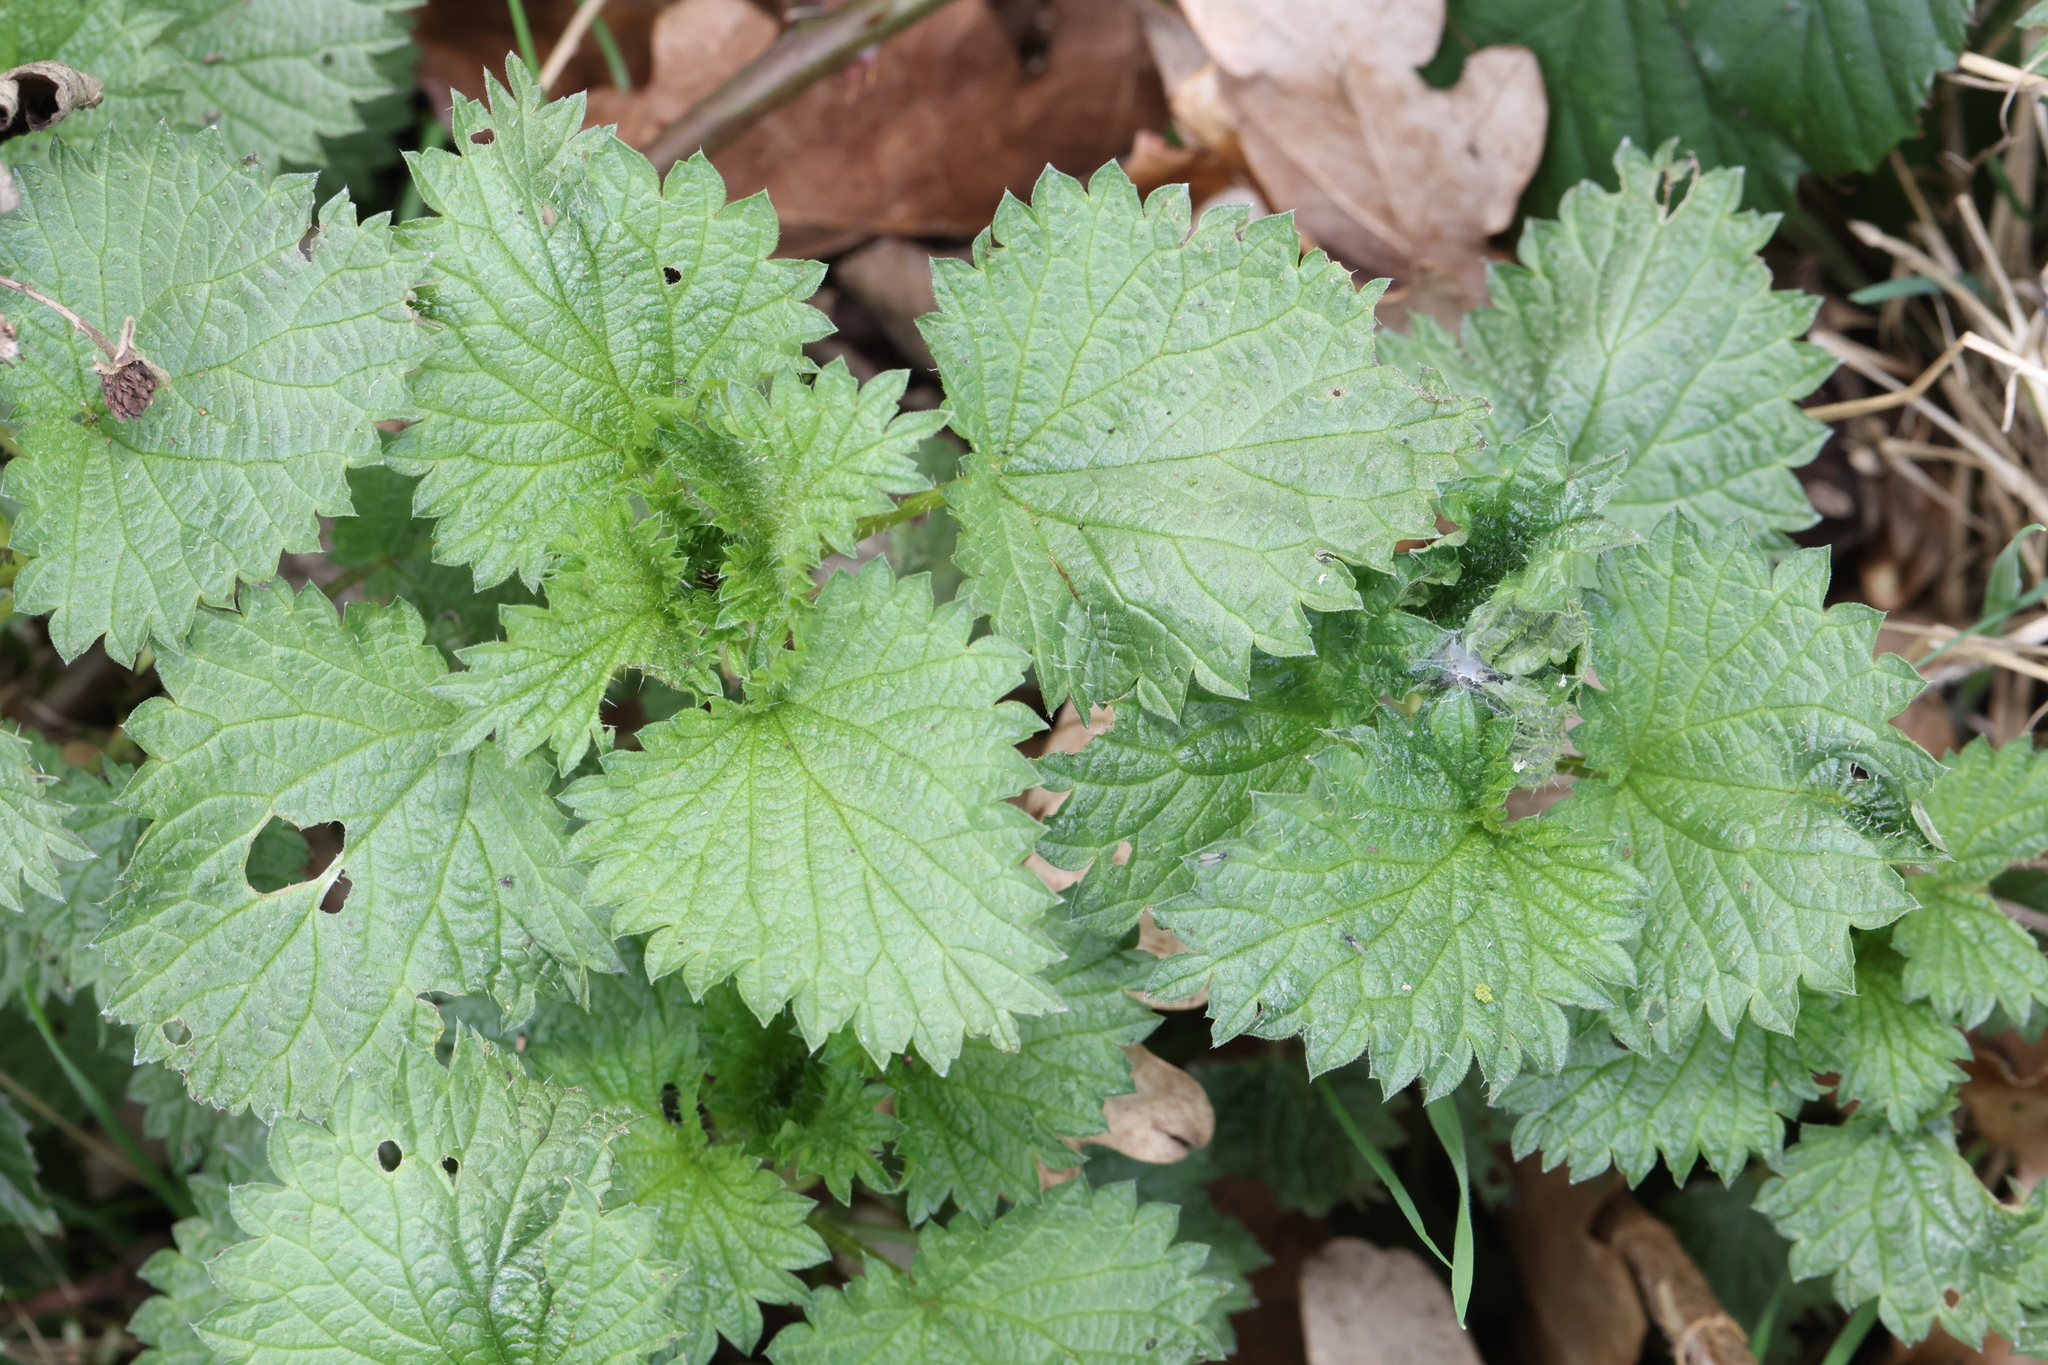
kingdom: Plantae
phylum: Tracheophyta
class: Magnoliopsida
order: Rosales
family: Urticaceae
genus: Urtica
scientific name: Urtica dioica
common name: Common nettle
